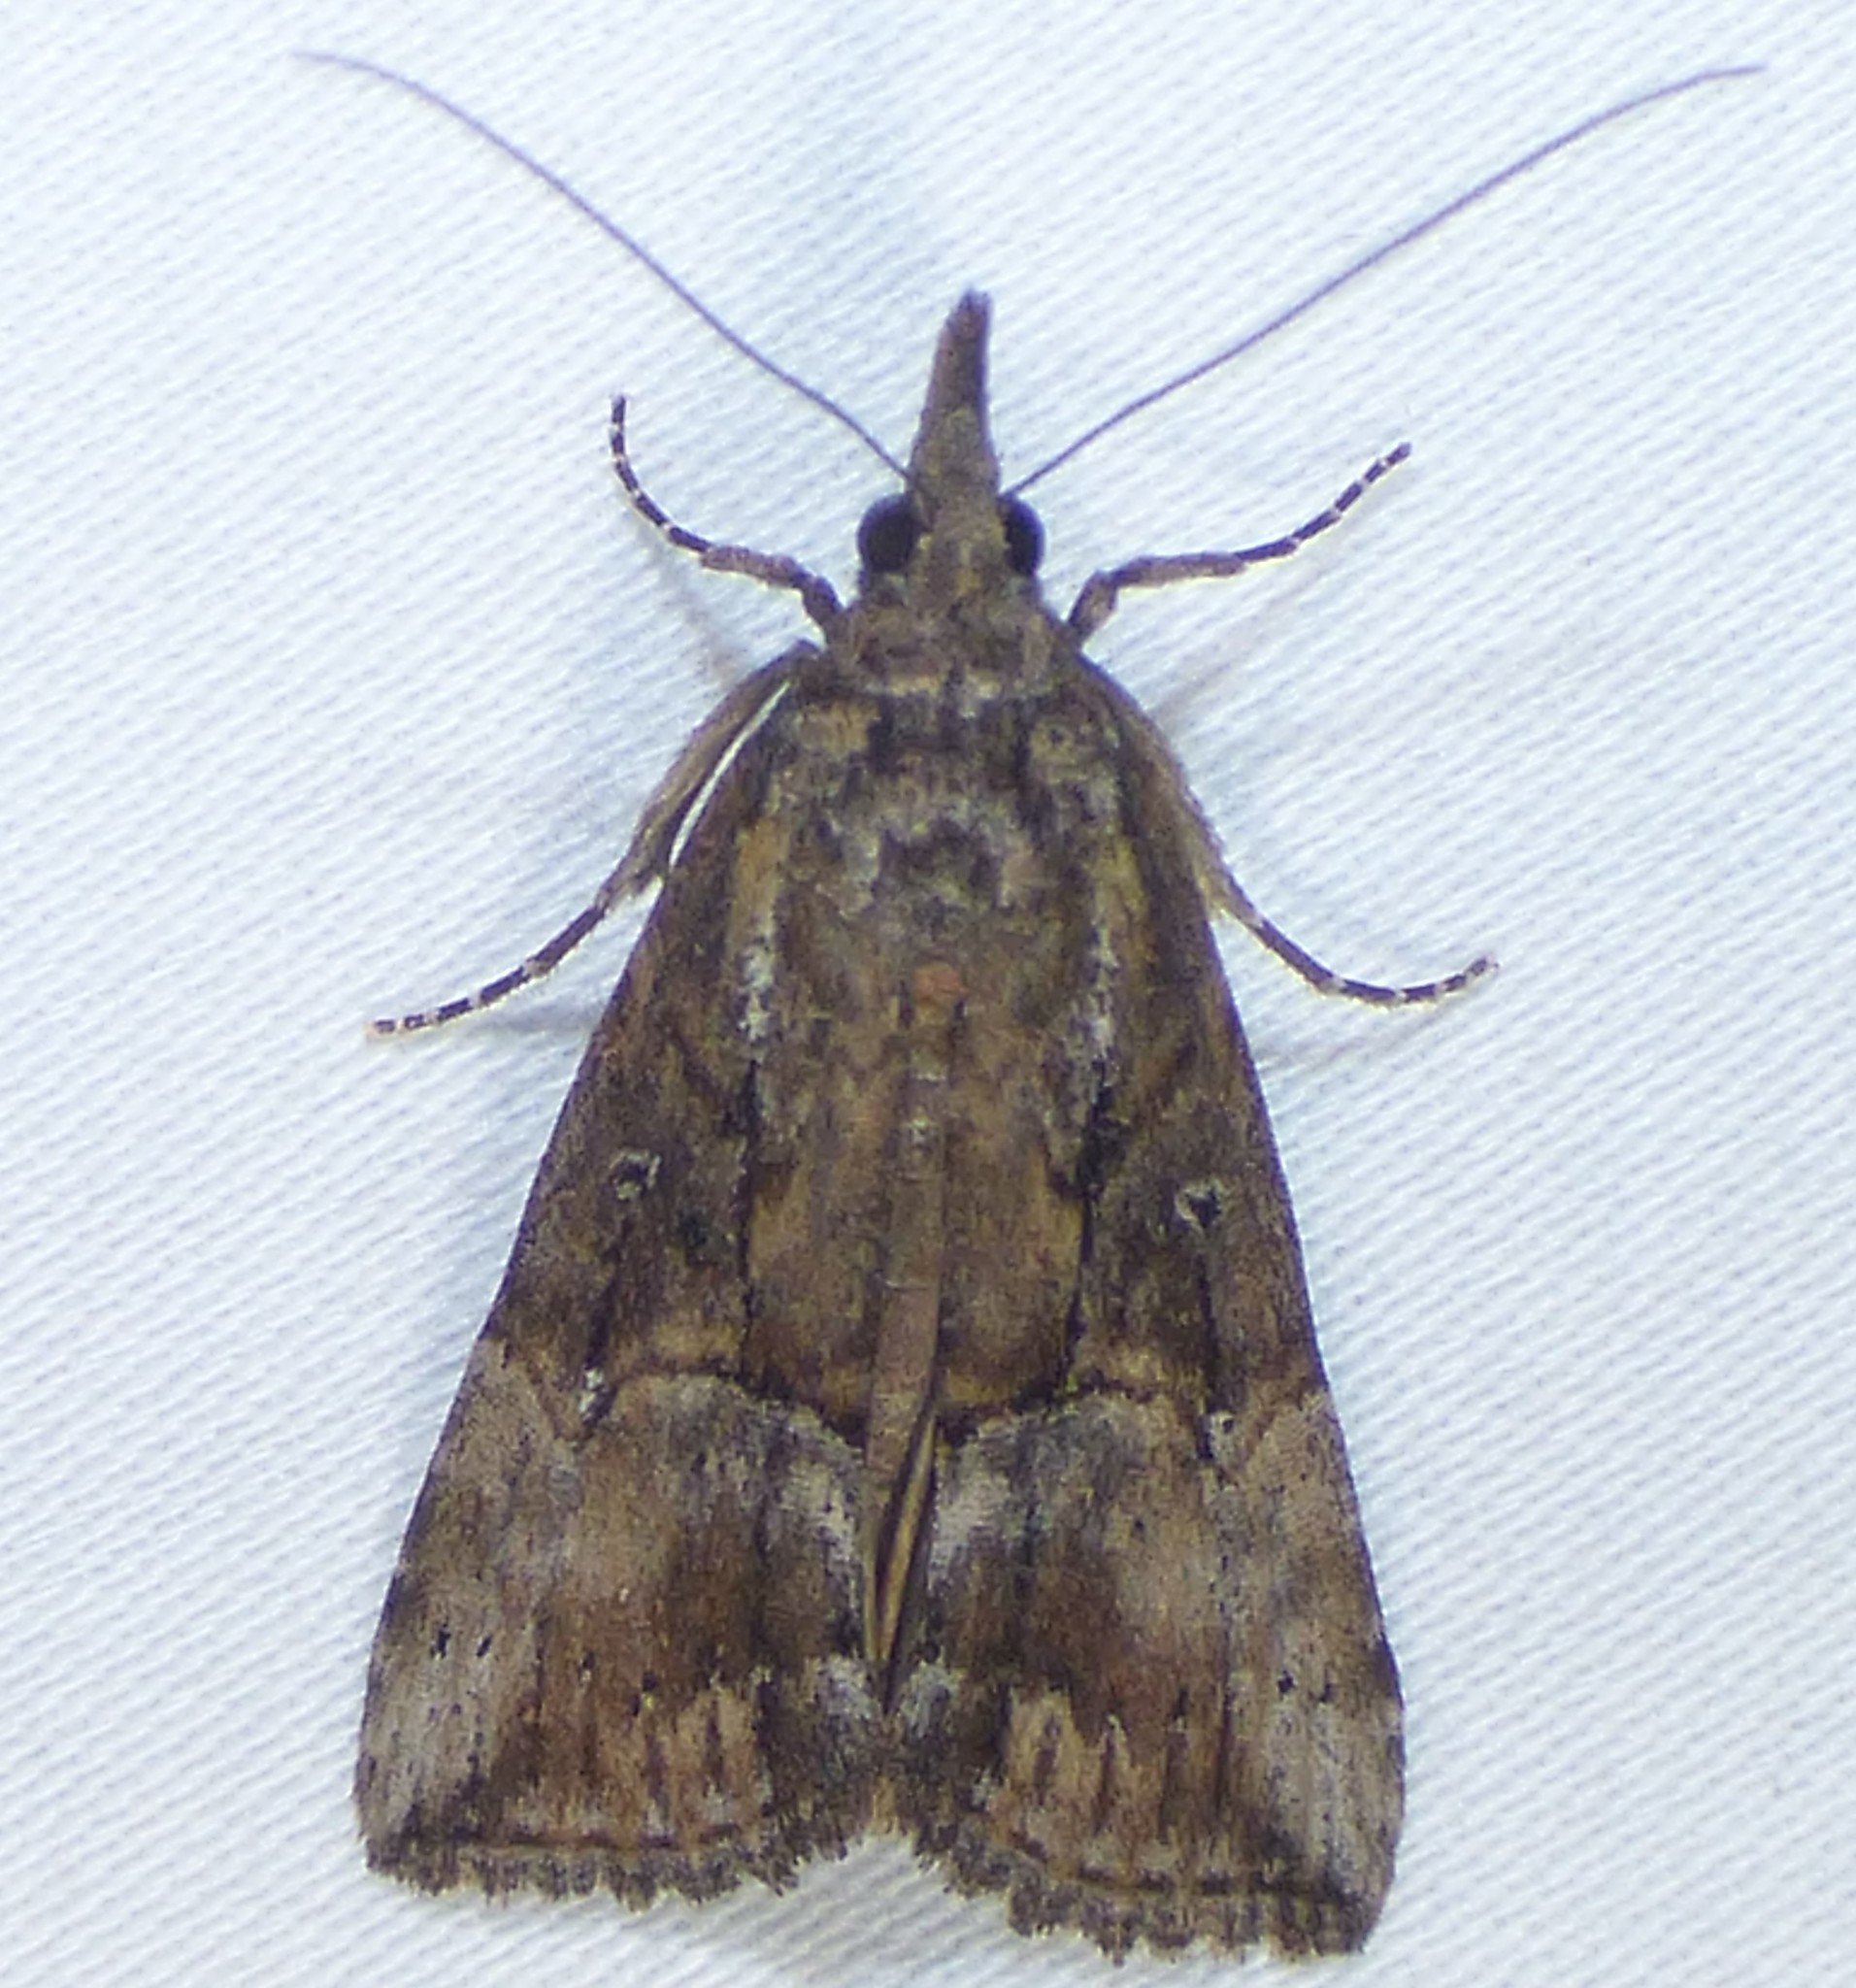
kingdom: Animalia
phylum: Arthropoda
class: Insecta
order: Lepidoptera
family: Erebidae
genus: Hypena
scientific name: Hypena scabra
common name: Green cloverworm
